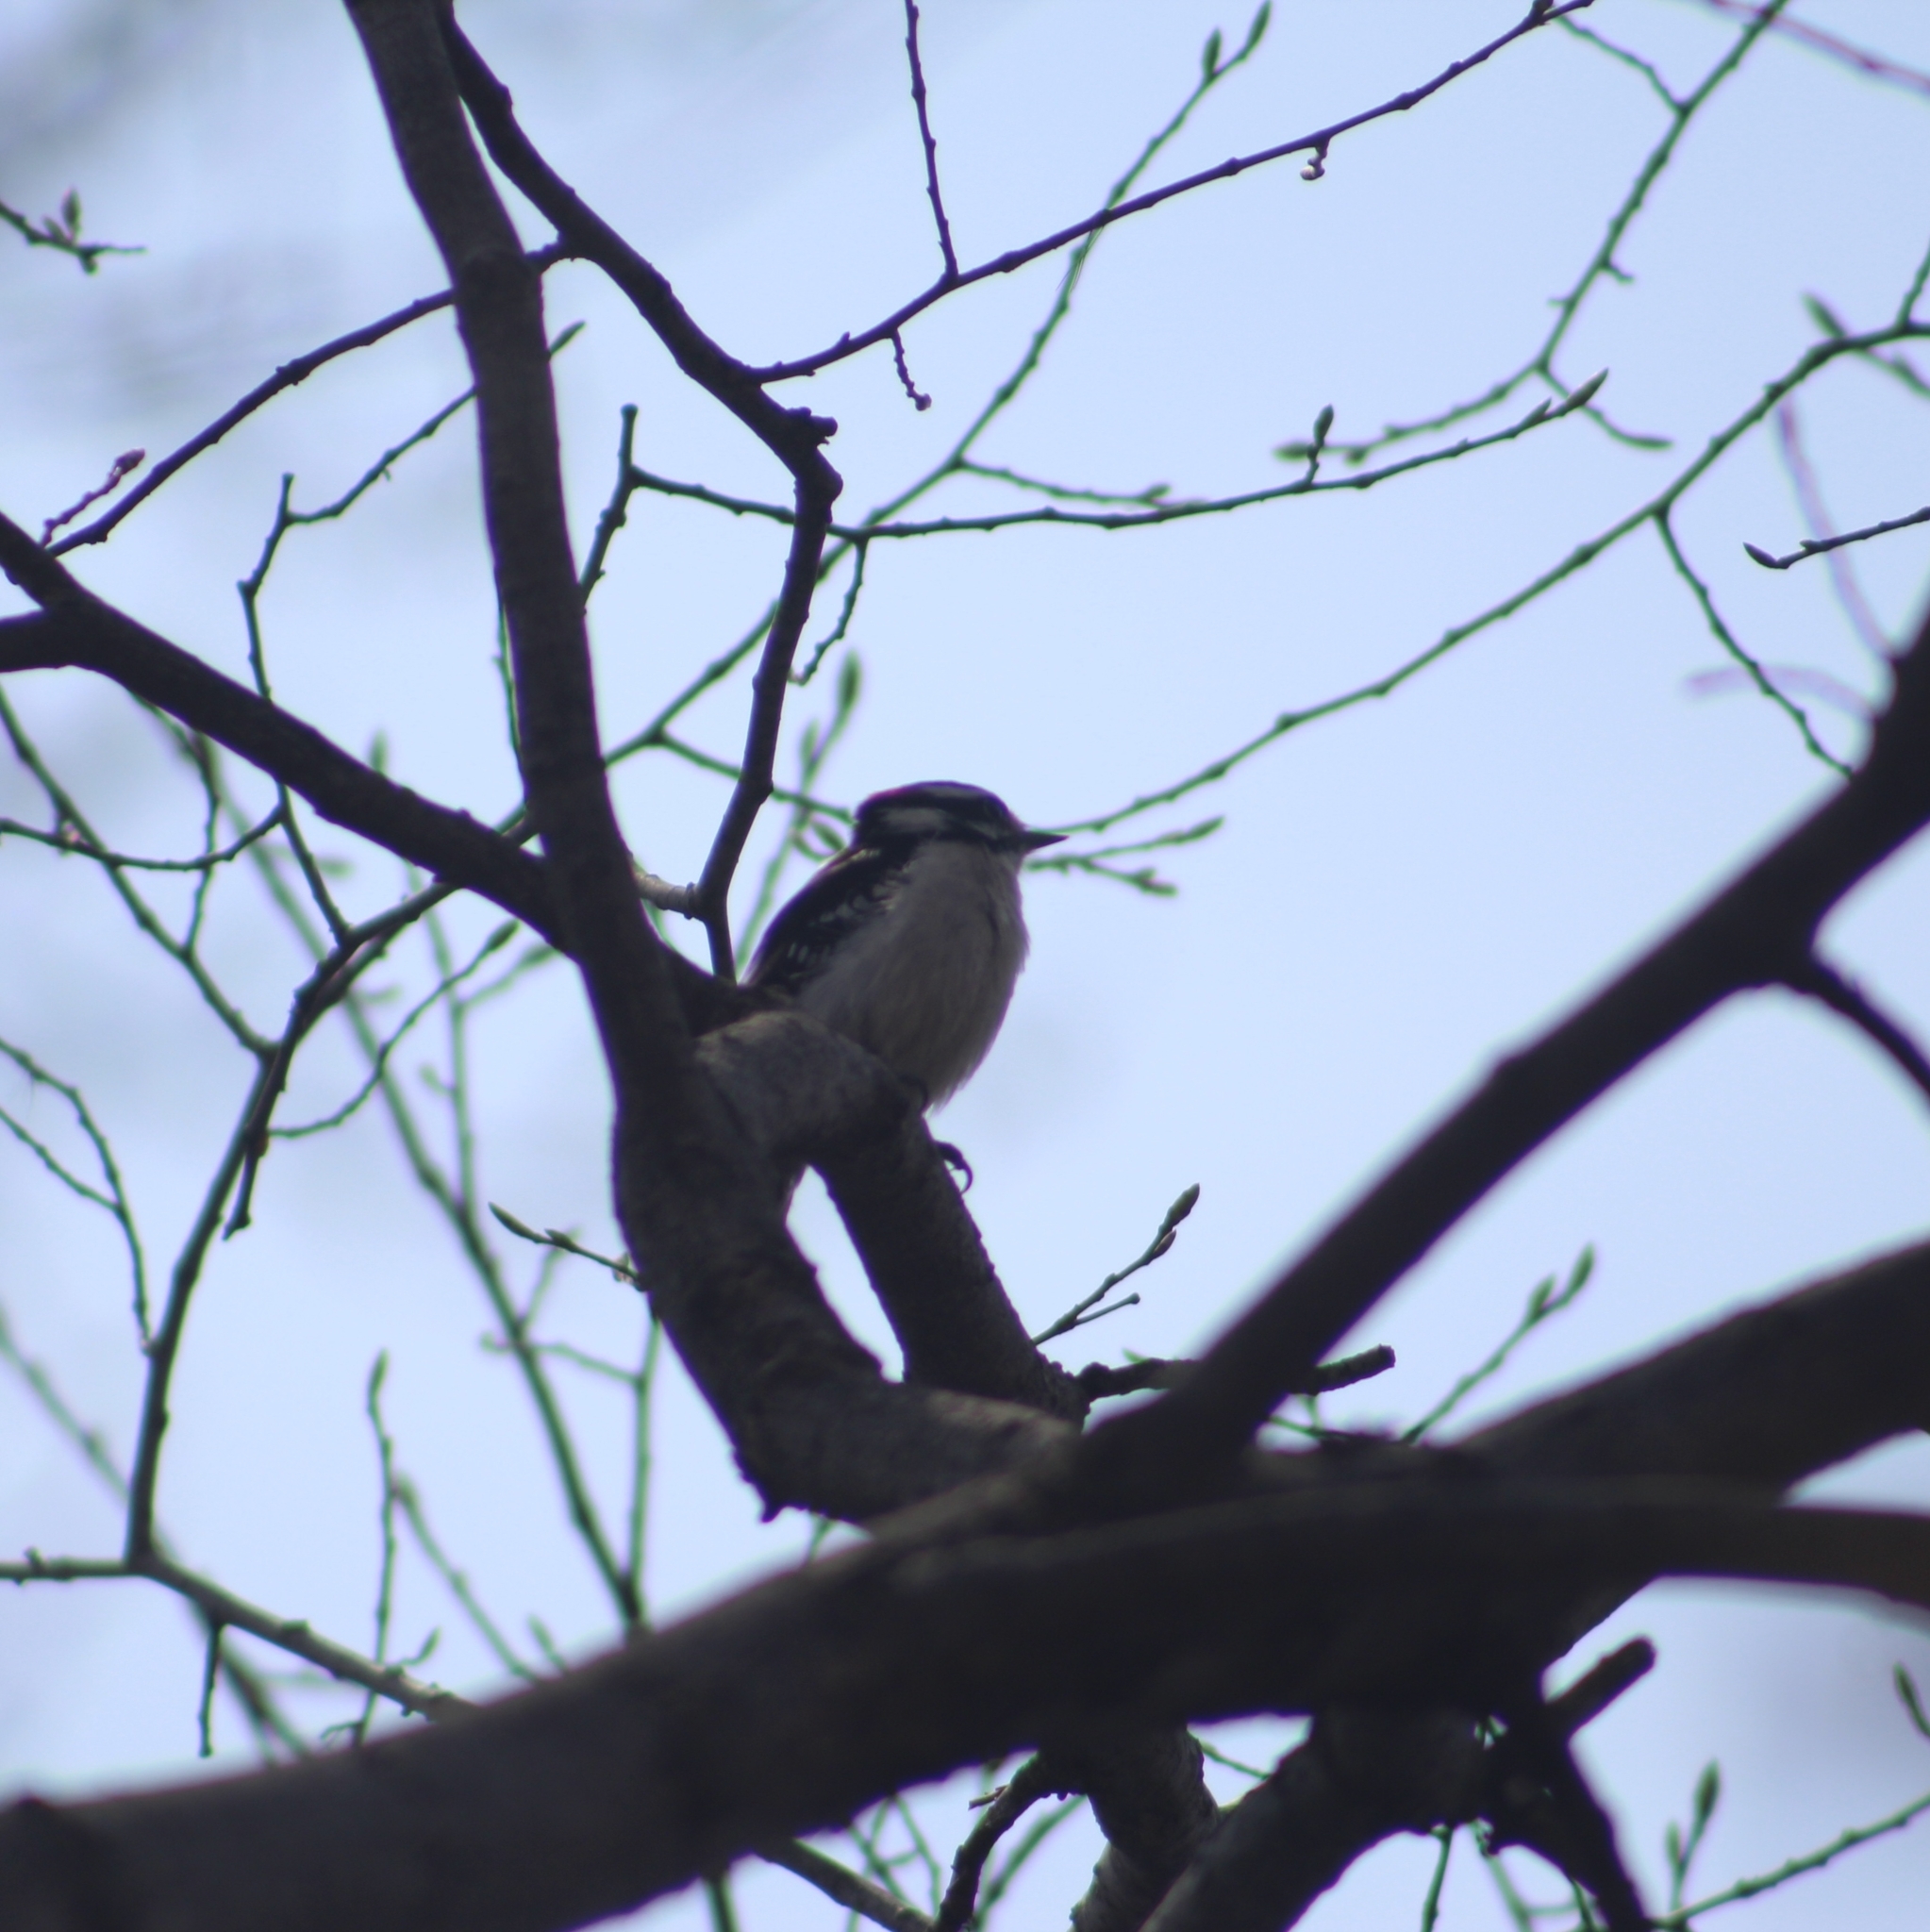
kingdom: Animalia
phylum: Chordata
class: Aves
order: Piciformes
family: Picidae
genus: Dryobates
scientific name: Dryobates pubescens
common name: Downy woodpecker
